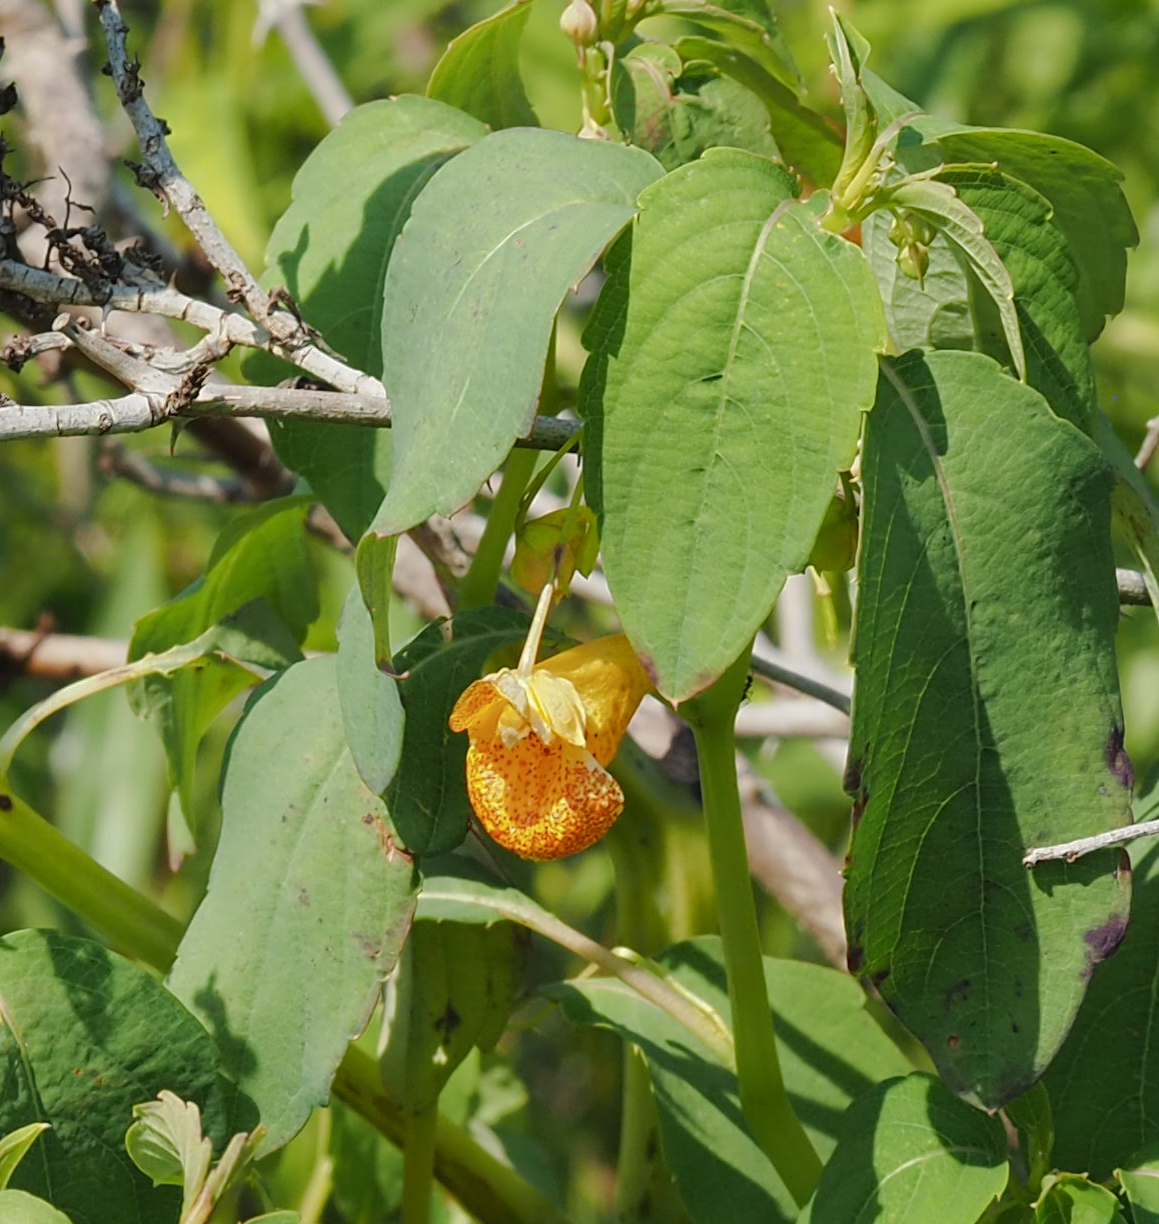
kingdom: Plantae
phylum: Tracheophyta
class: Magnoliopsida
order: Ericales
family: Balsaminaceae
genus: Impatiens
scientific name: Impatiens capensis
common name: Orange balsam
